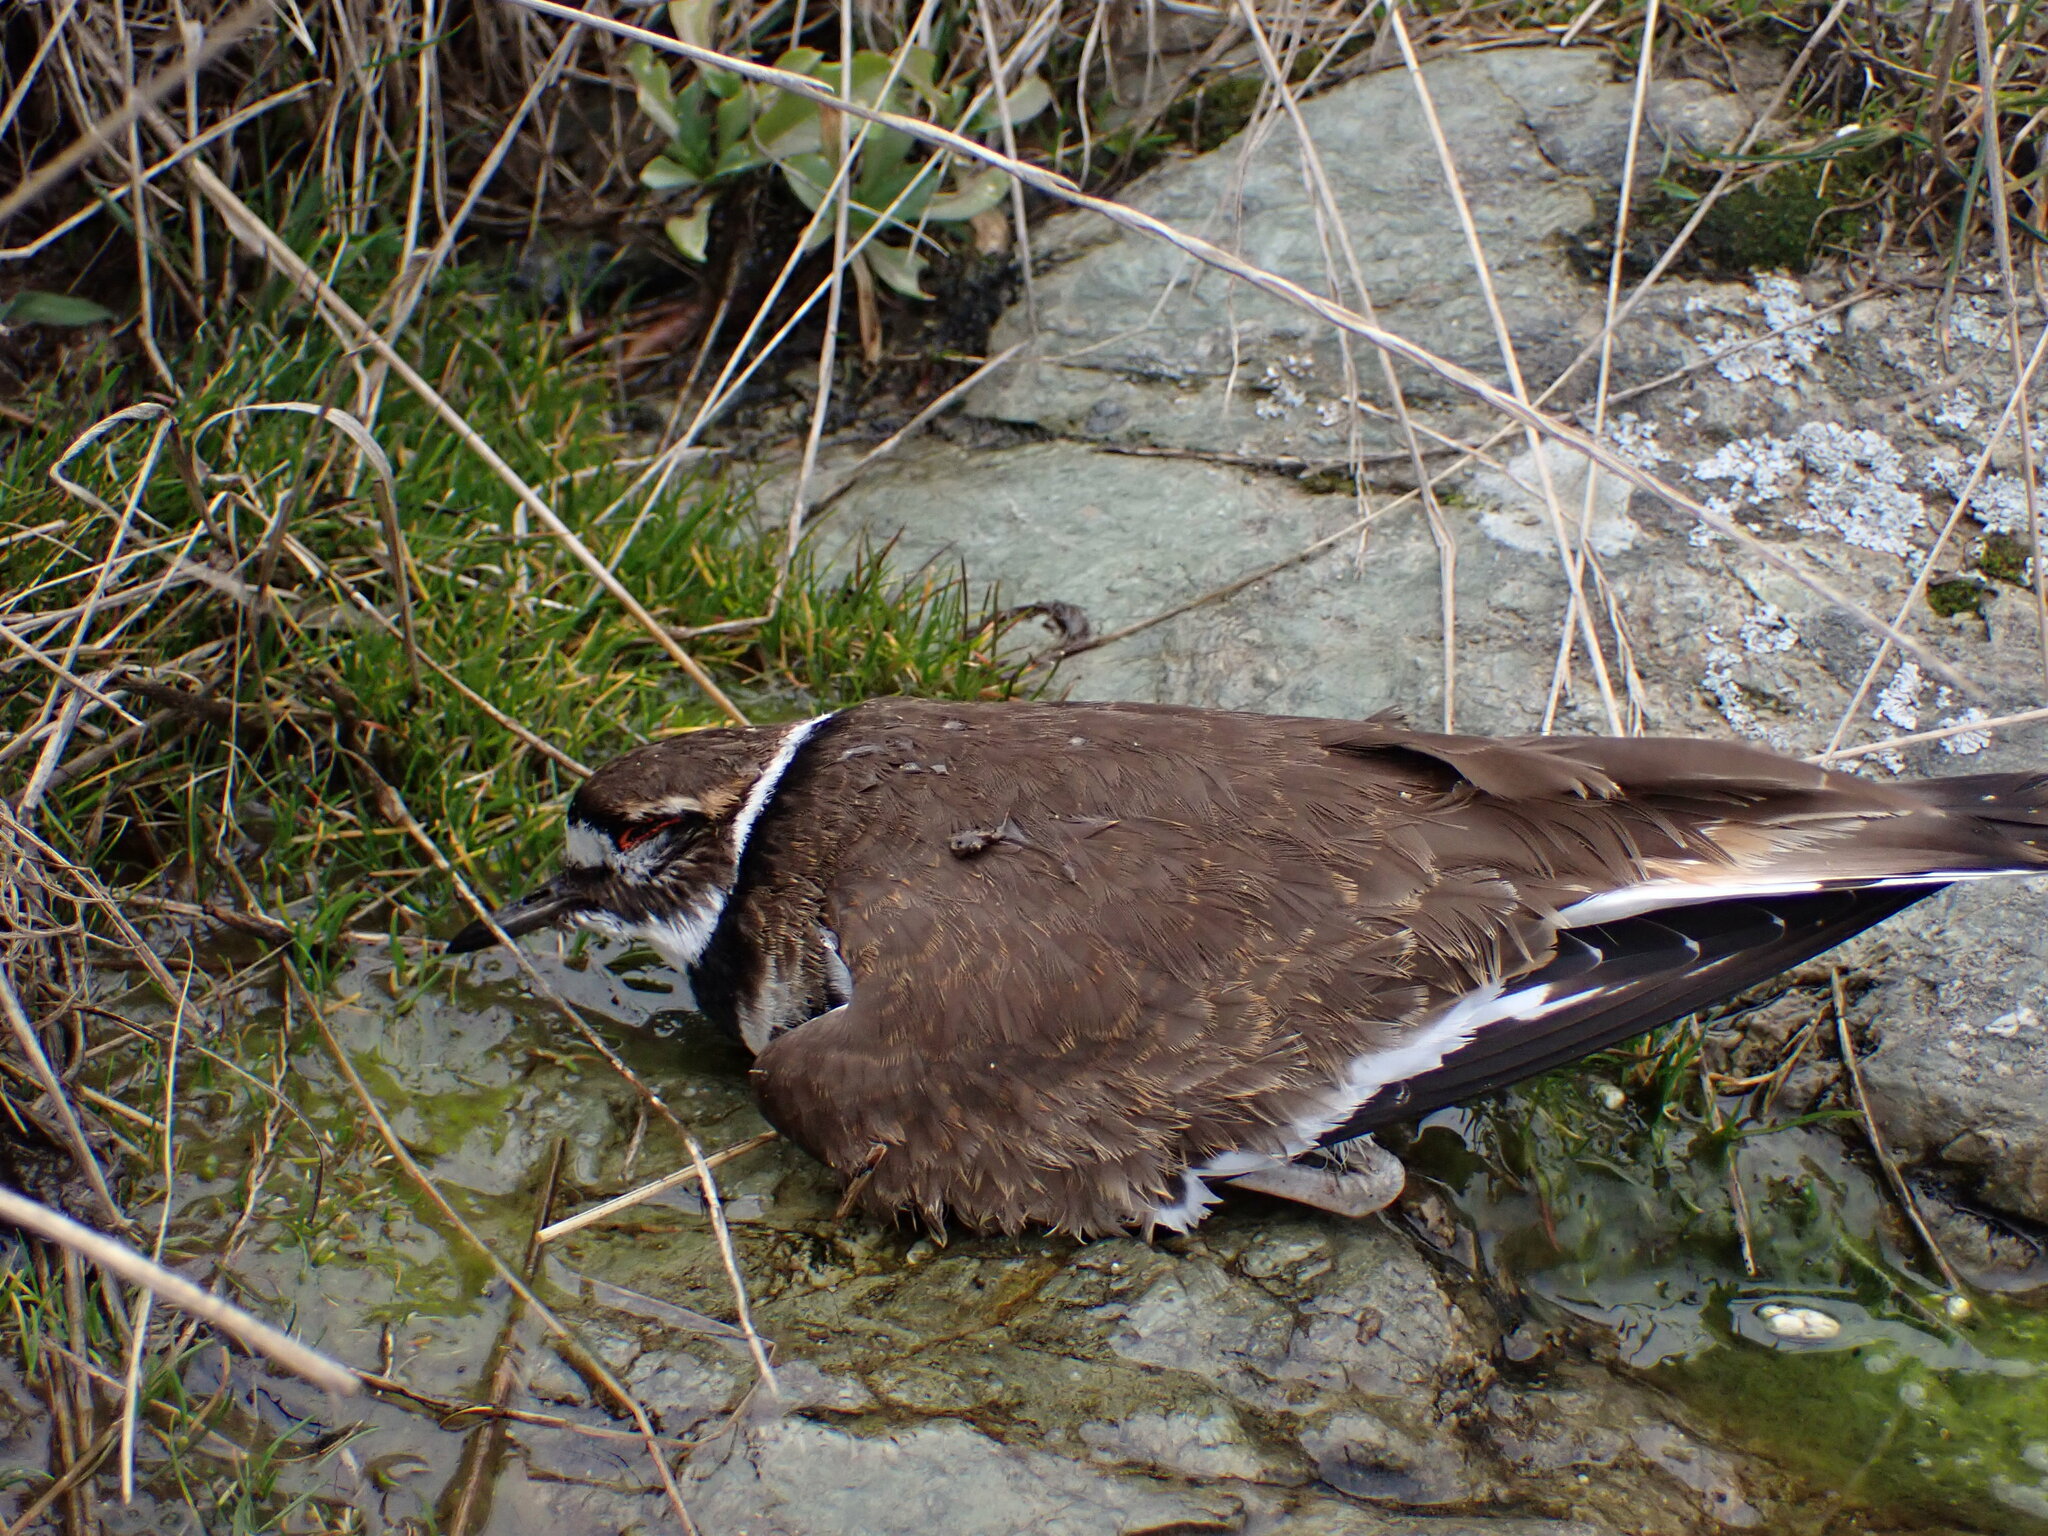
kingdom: Animalia
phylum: Chordata
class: Aves
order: Charadriiformes
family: Charadriidae
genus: Charadrius
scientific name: Charadrius vociferus
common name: Killdeer
